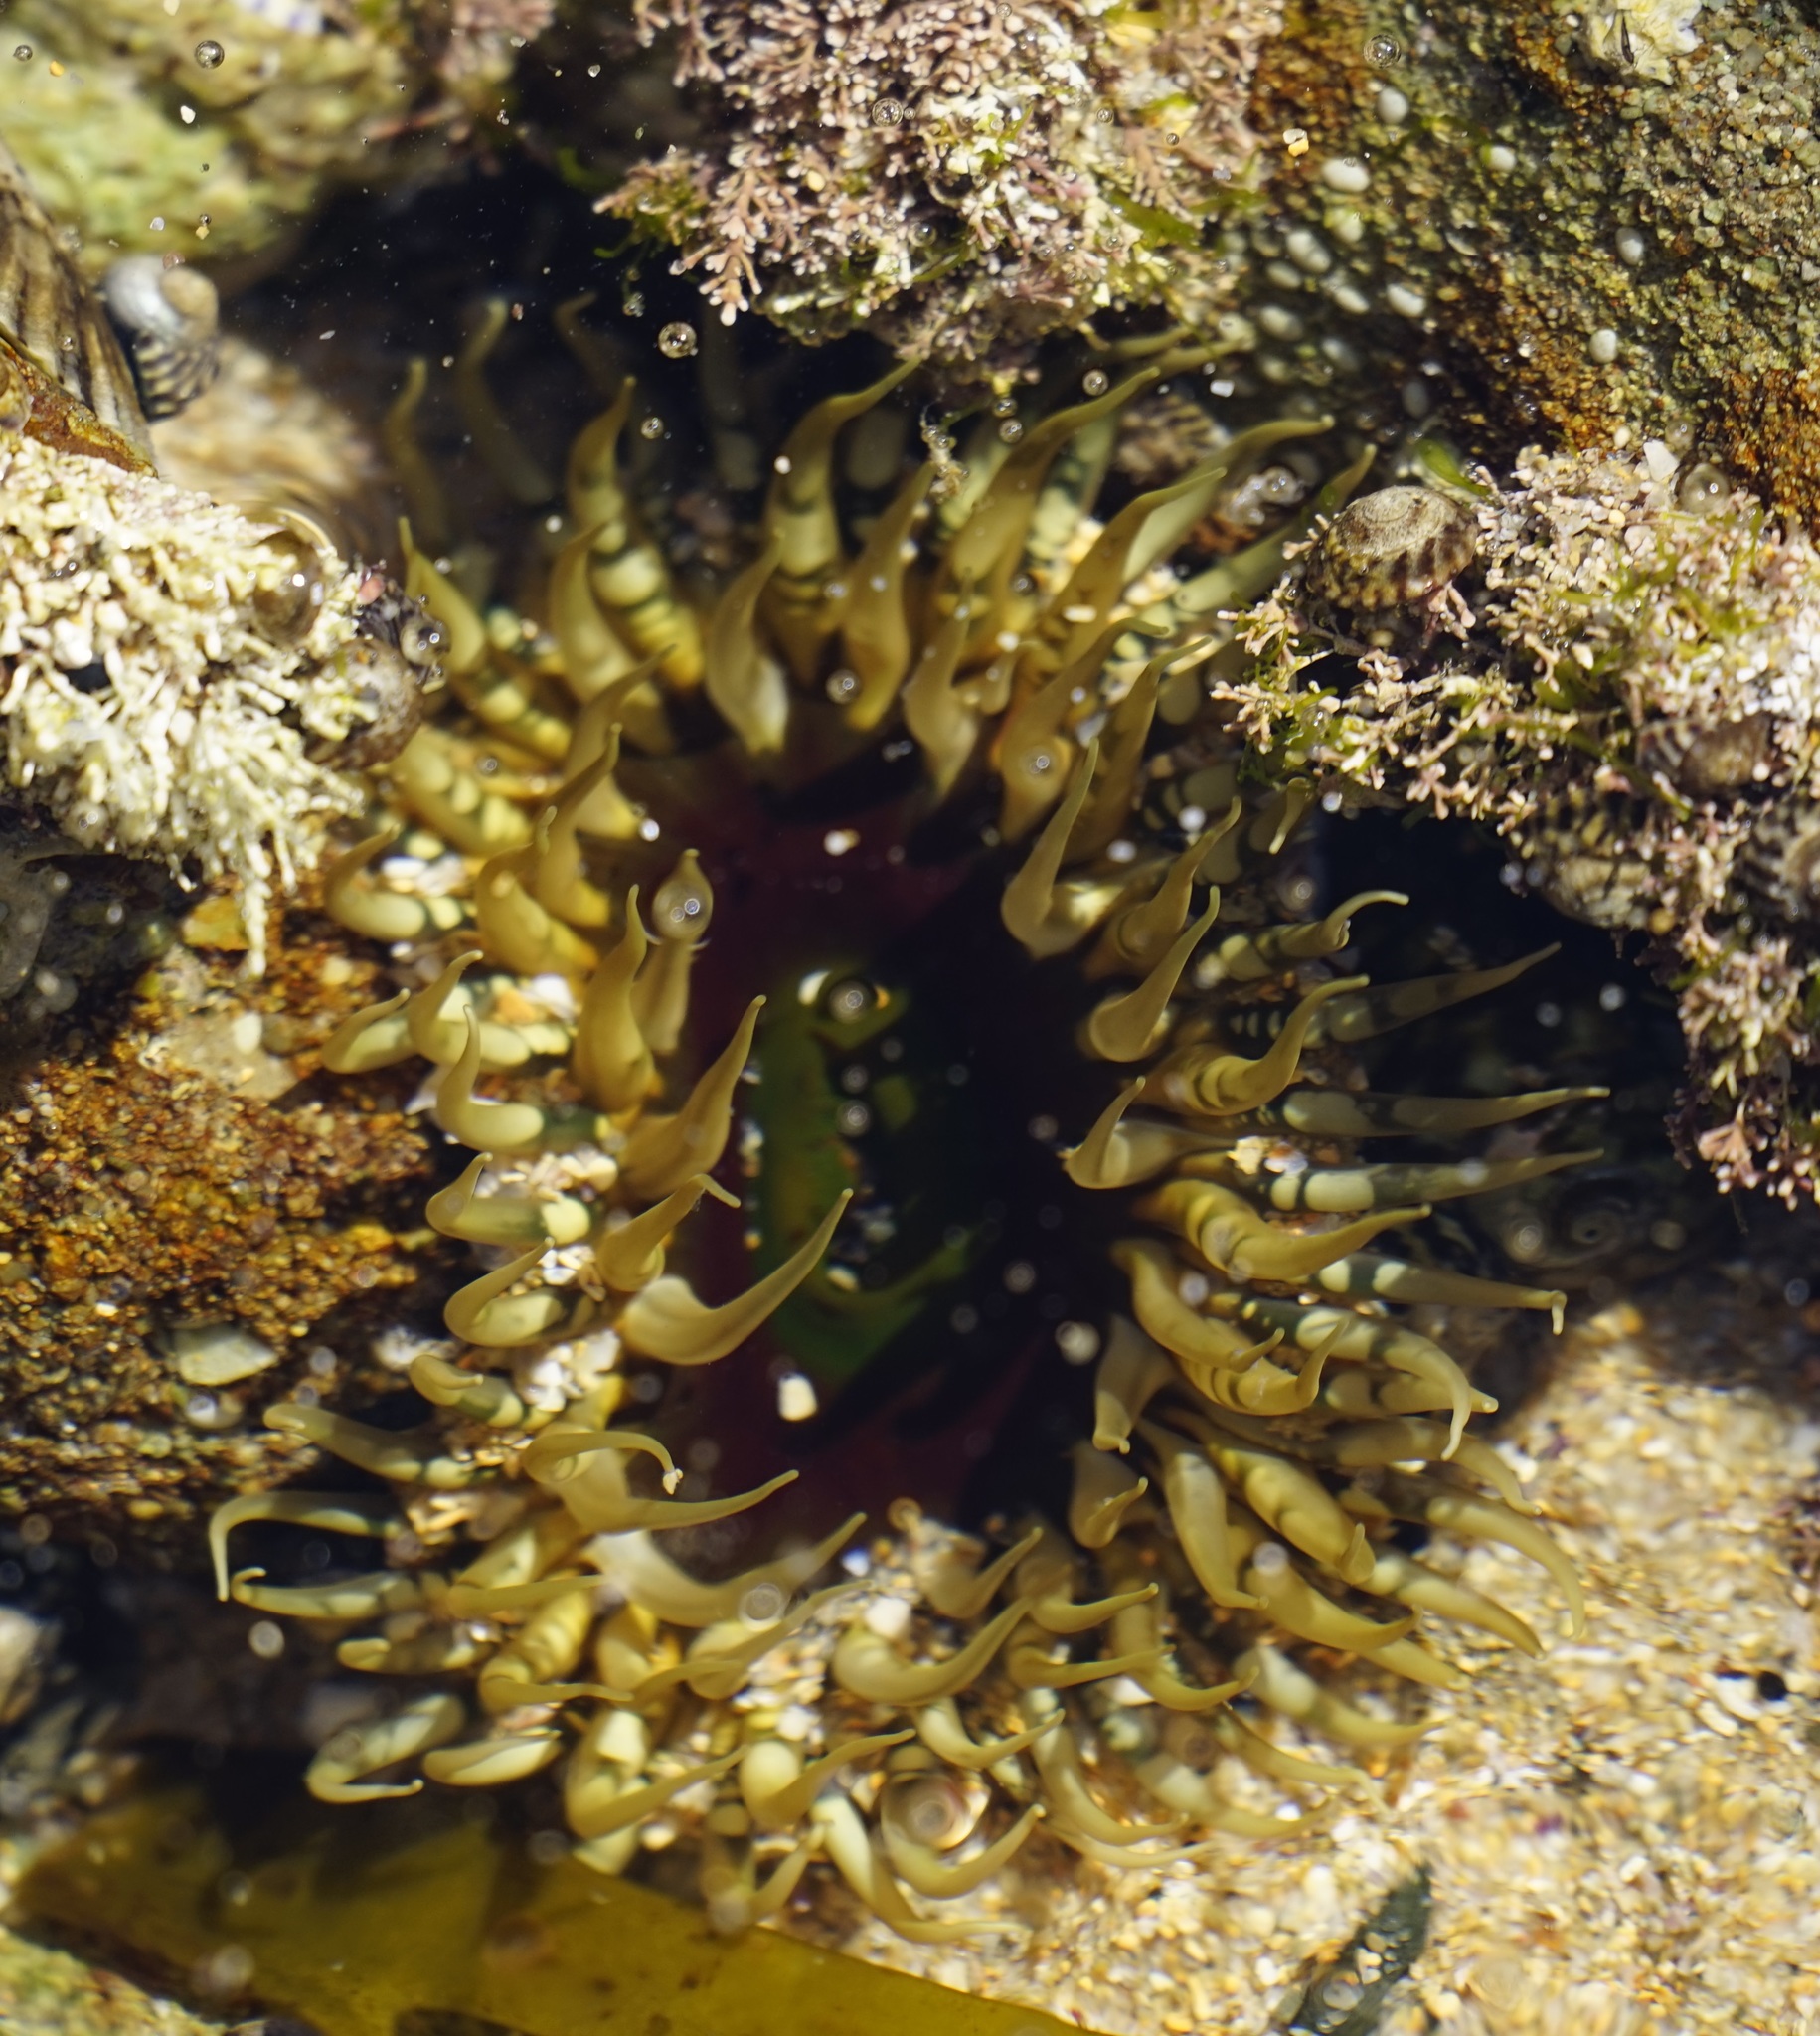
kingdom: Animalia
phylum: Cnidaria
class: Anthozoa
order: Actiniaria
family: Actiniidae
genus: Oulactis
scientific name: Oulactis muscosa
